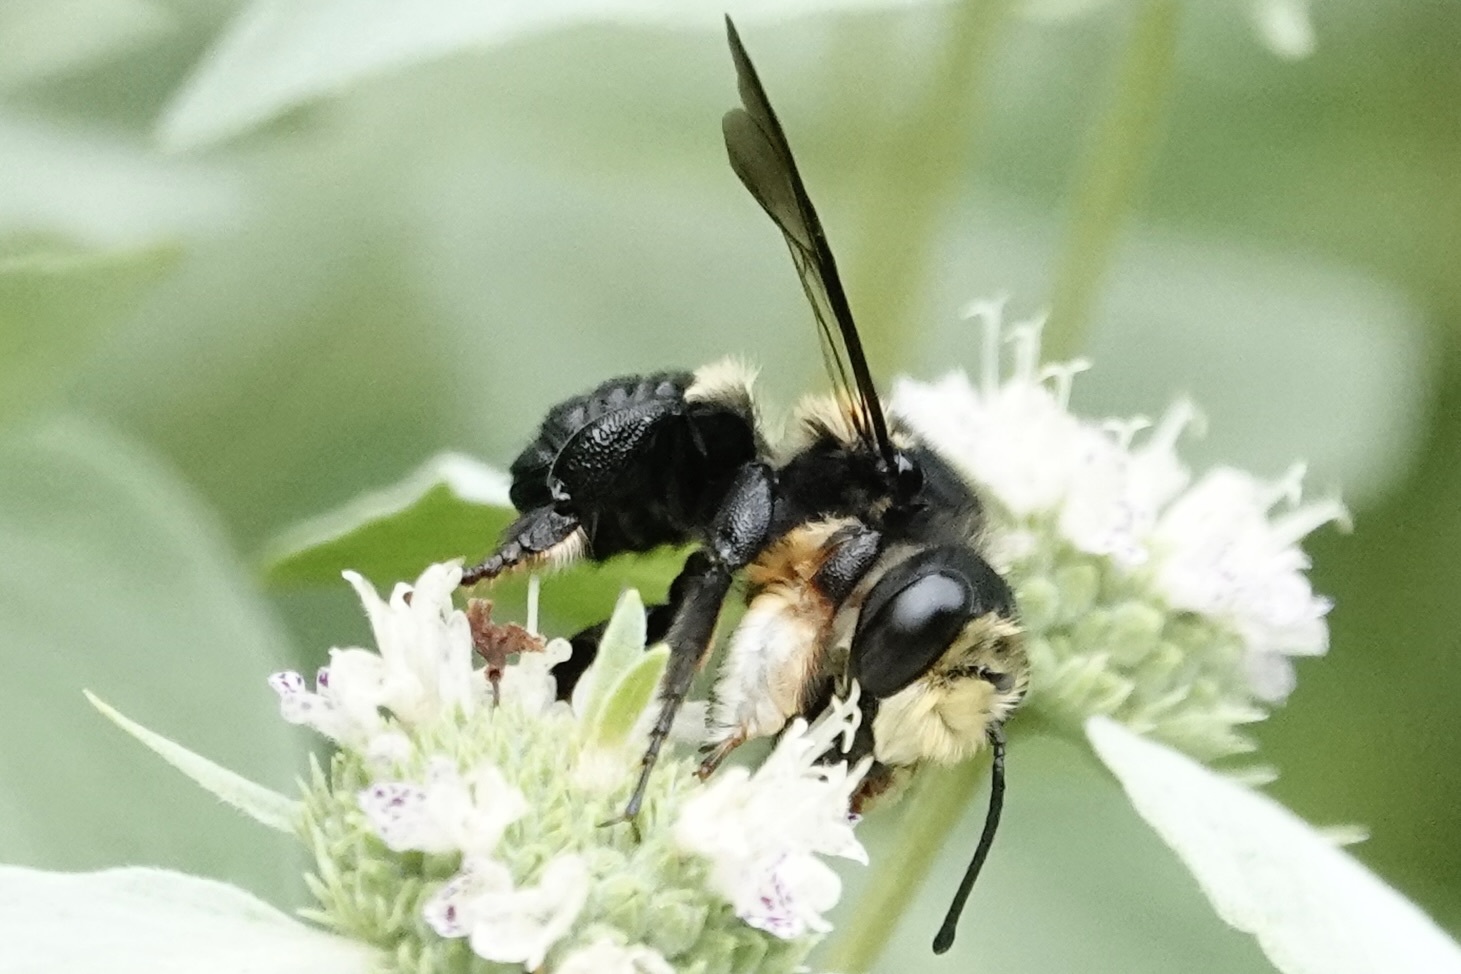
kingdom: Animalia
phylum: Arthropoda
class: Insecta
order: Hymenoptera
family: Megachilidae
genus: Megachile
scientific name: Megachile xylocopoides
